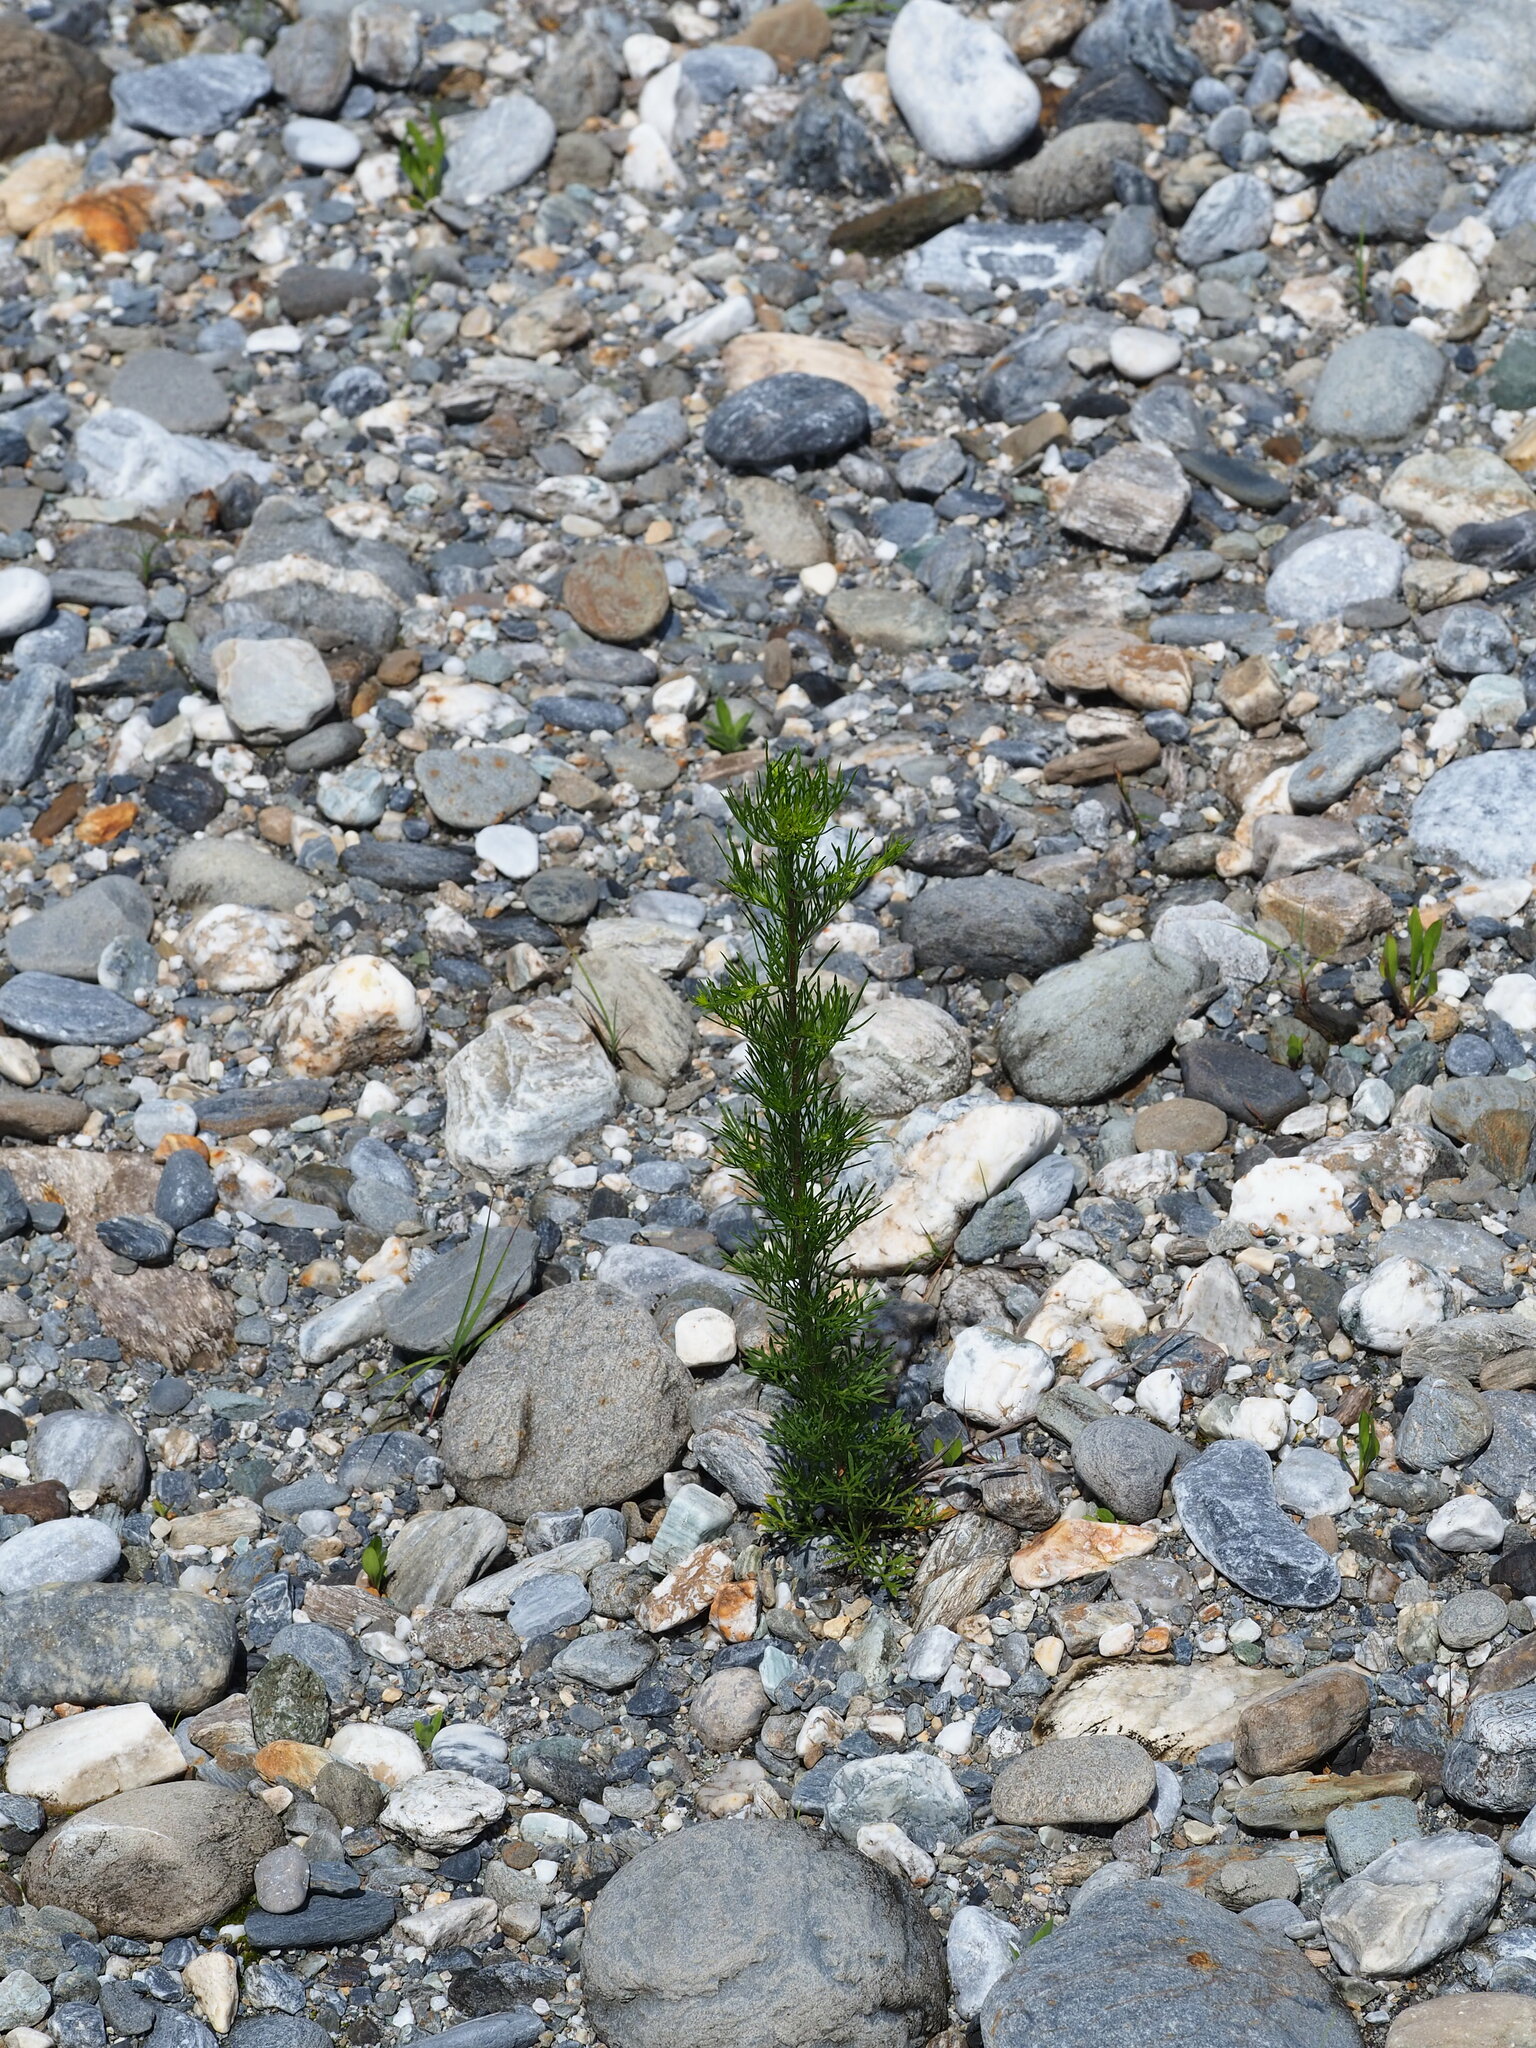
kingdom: Plantae
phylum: Tracheophyta
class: Magnoliopsida
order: Asterales
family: Asteraceae
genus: Artemisia
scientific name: Artemisia capillaris
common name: Yin-chen wormwood
